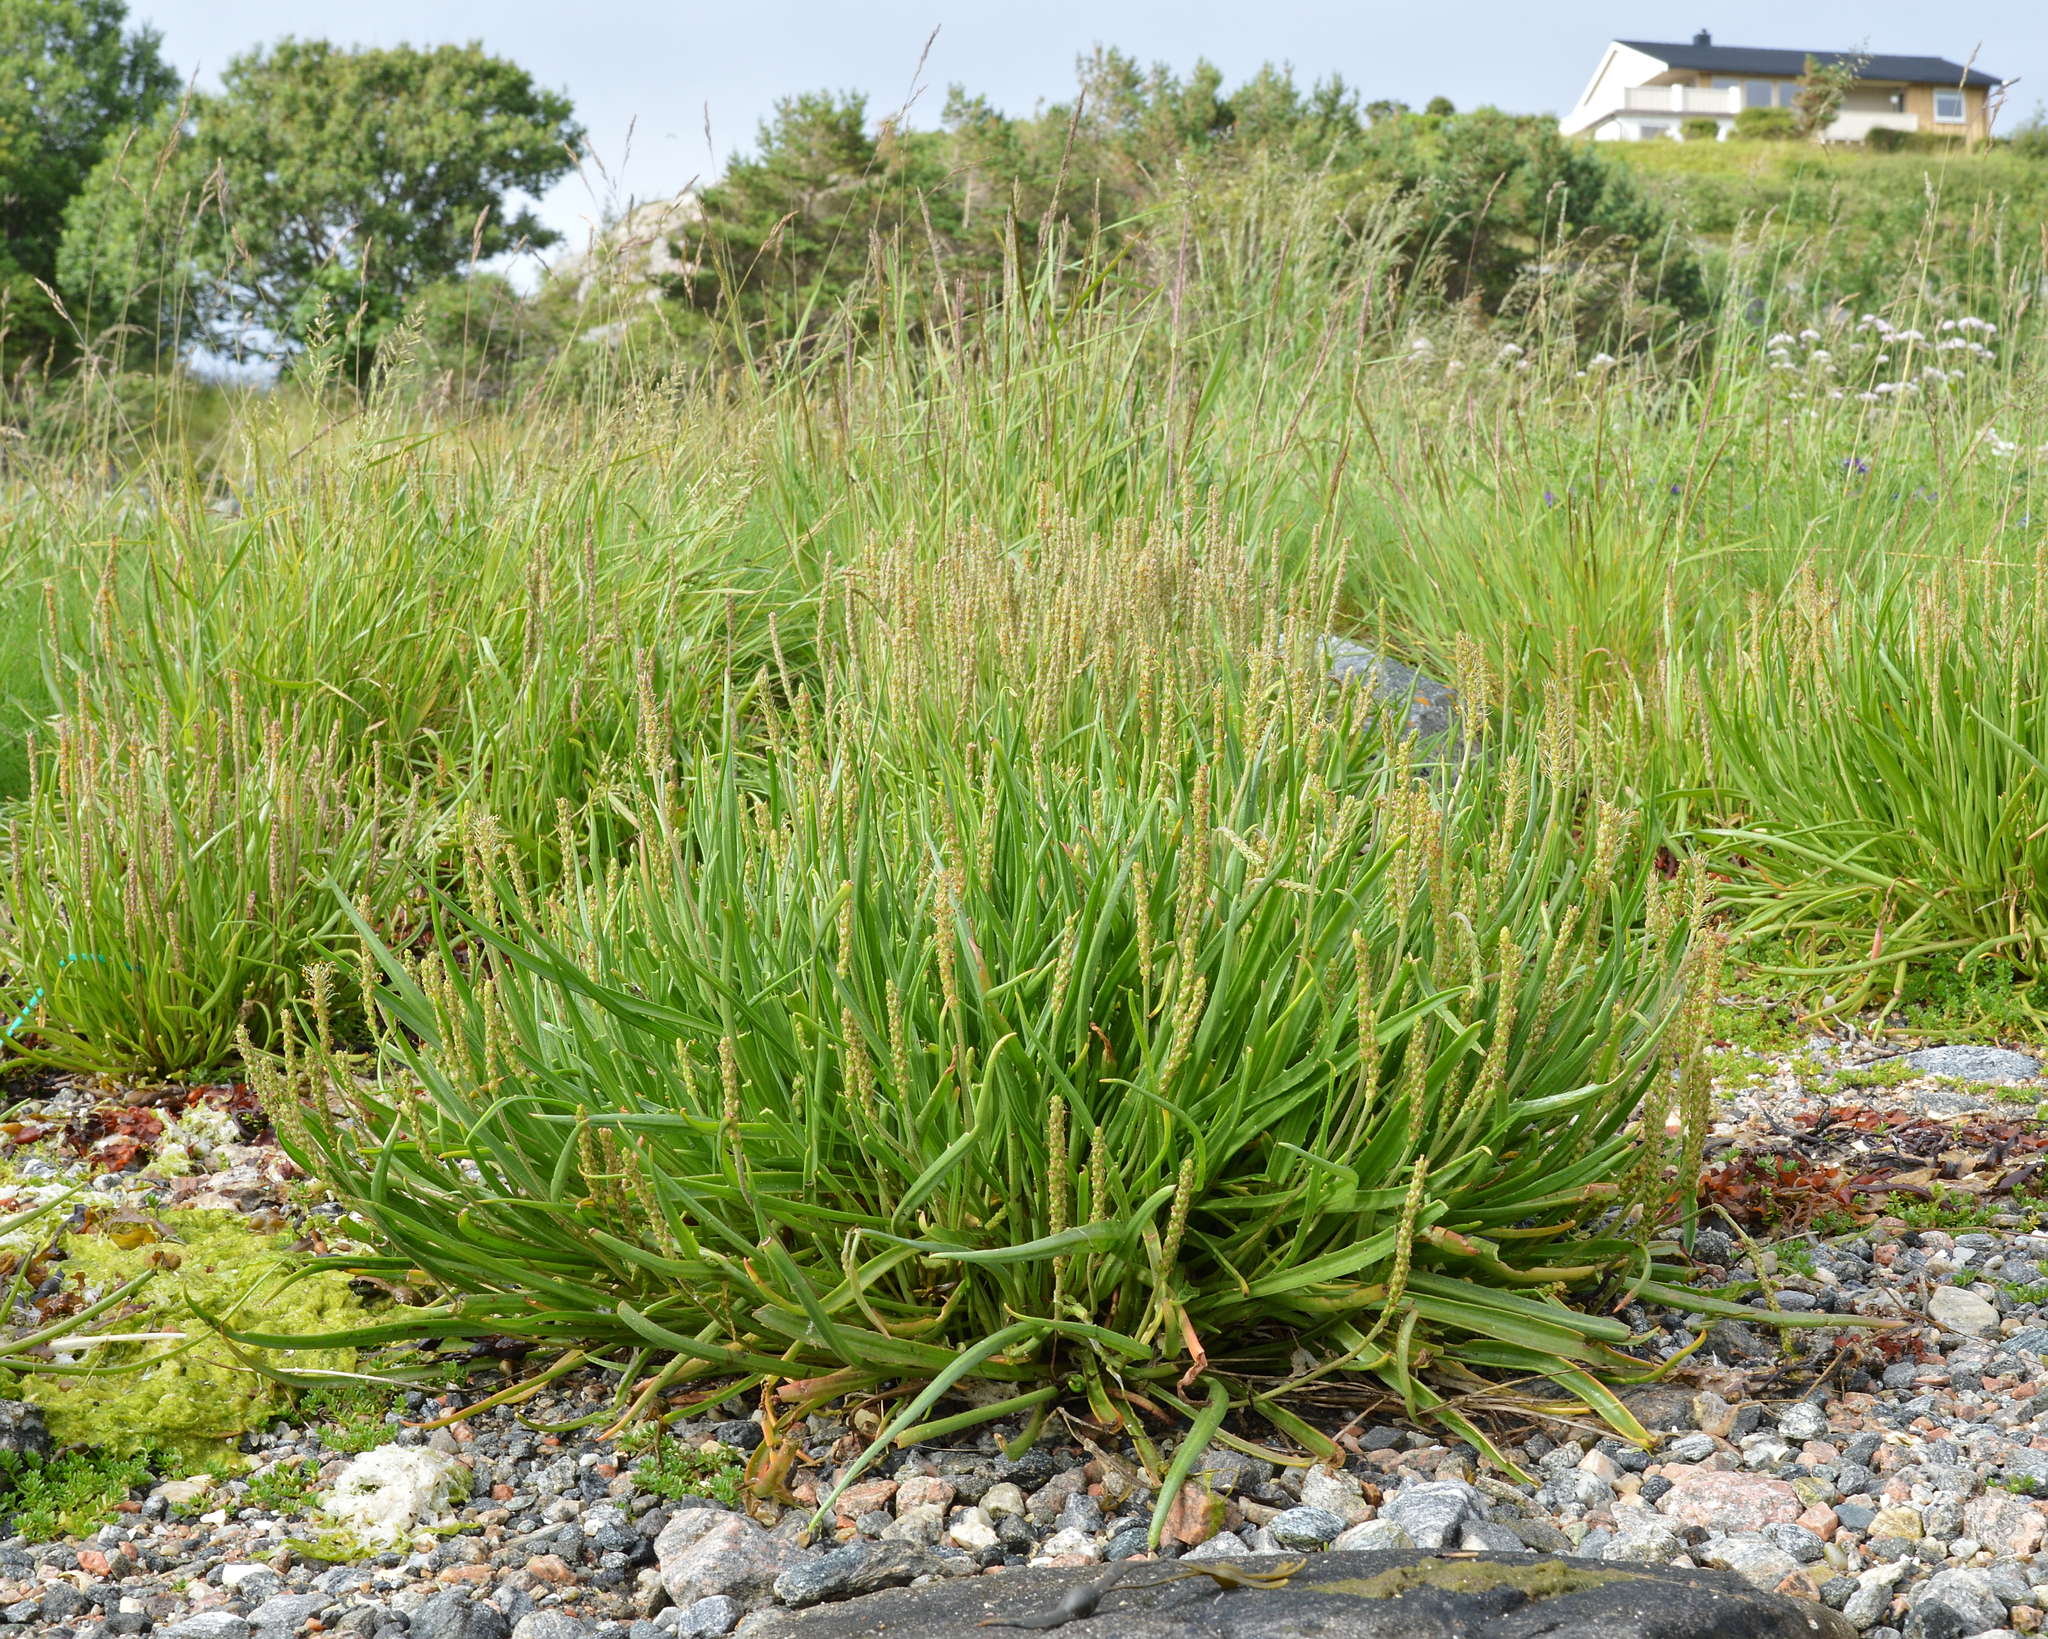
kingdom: Plantae
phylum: Tracheophyta
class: Magnoliopsida
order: Lamiales
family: Plantaginaceae
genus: Plantago
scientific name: Plantago maritima
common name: Sea plantain
